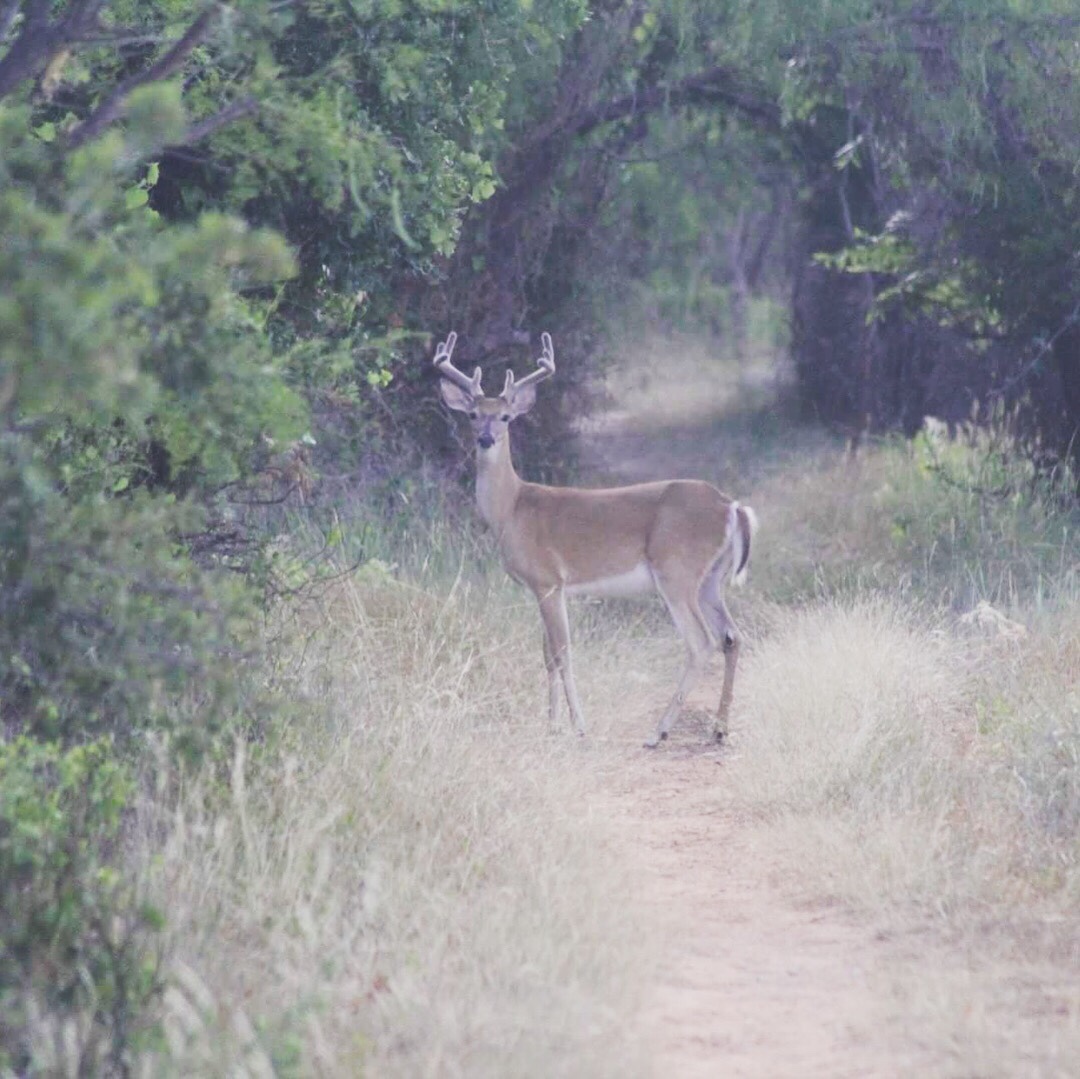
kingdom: Animalia
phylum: Chordata
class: Mammalia
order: Artiodactyla
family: Cervidae
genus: Odocoileus
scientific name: Odocoileus virginianus
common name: White-tailed deer
